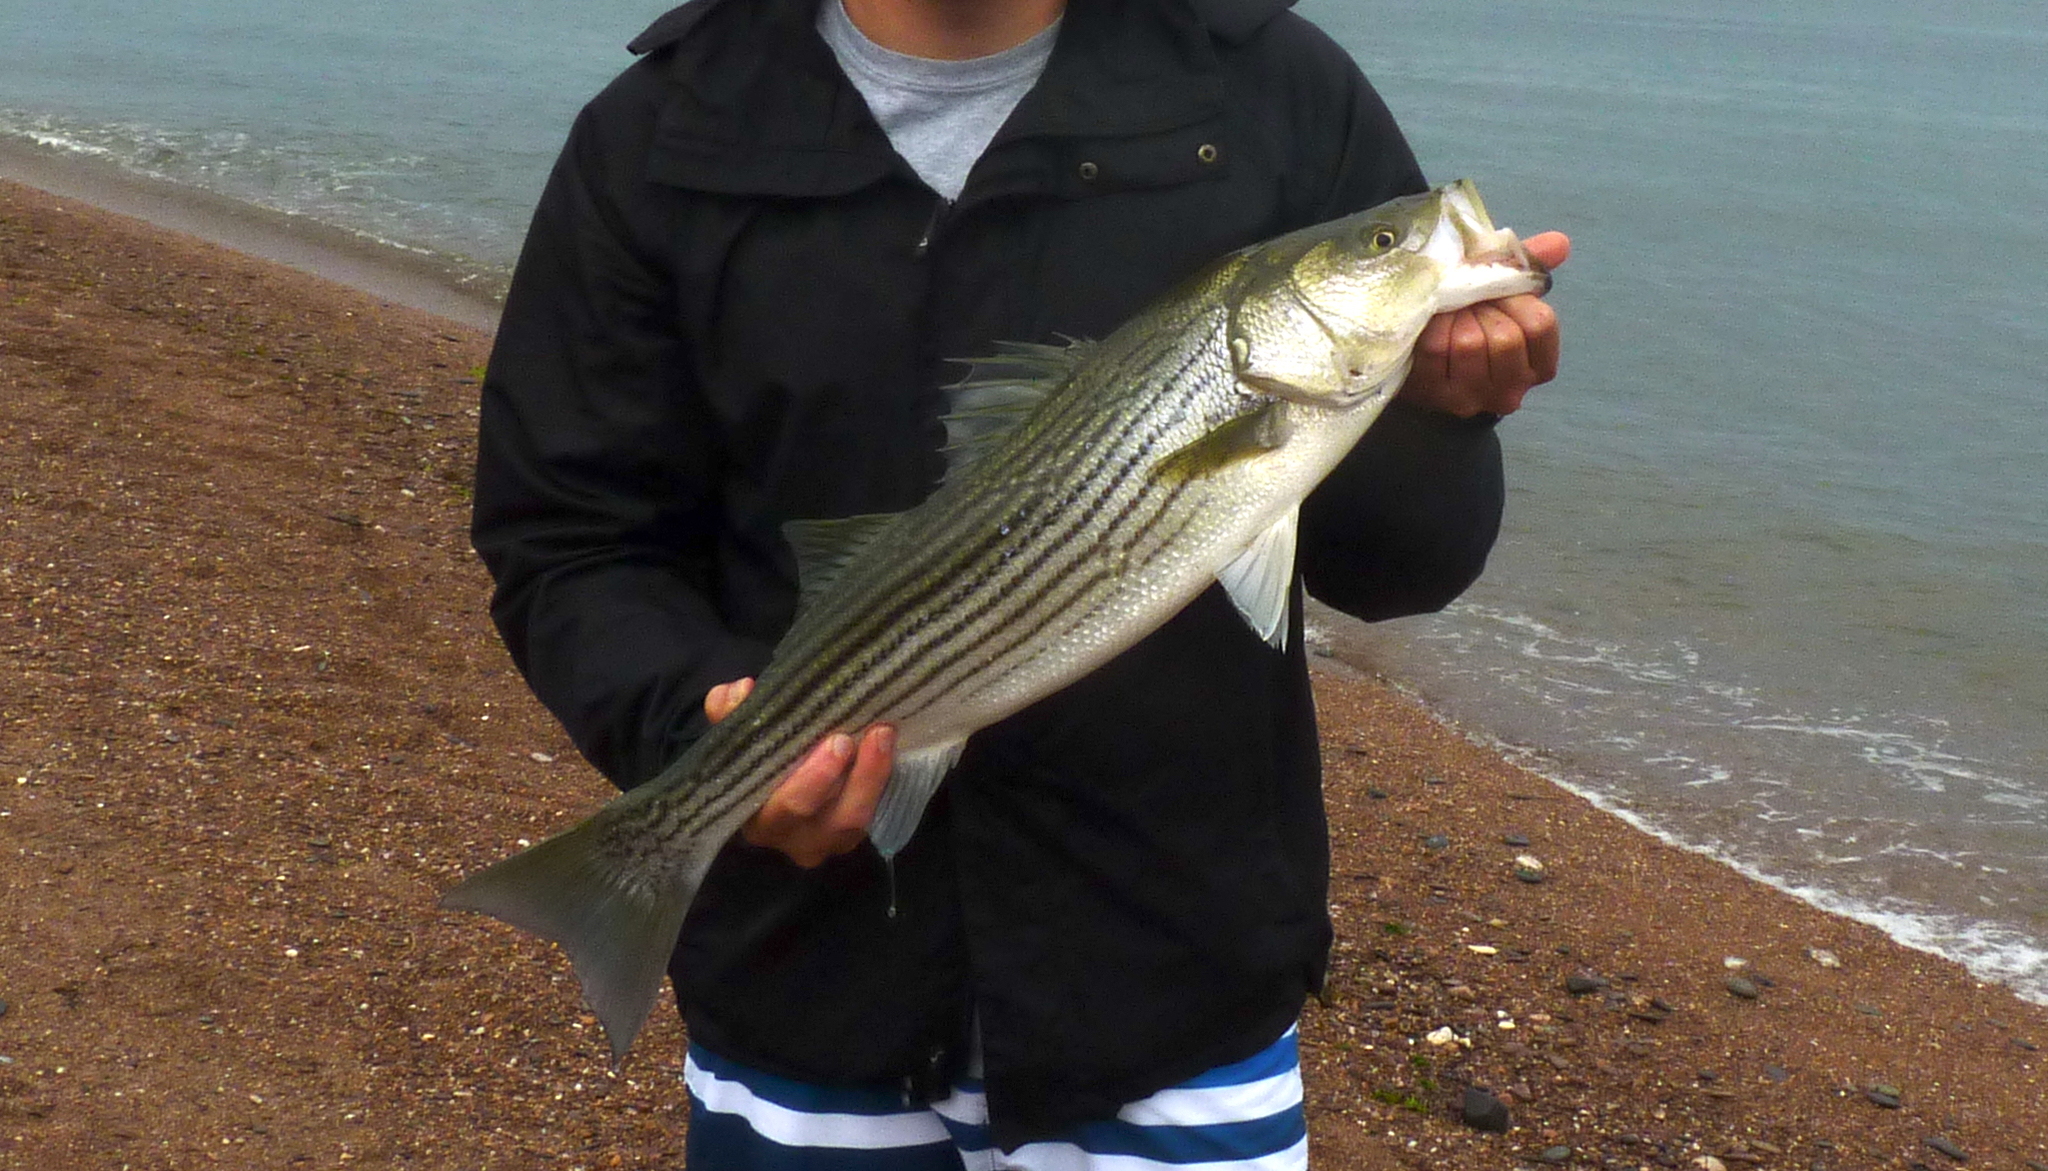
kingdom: Animalia
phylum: Chordata
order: Perciformes
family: Moronidae
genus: Morone
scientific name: Morone saxatilis
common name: Striped bass
